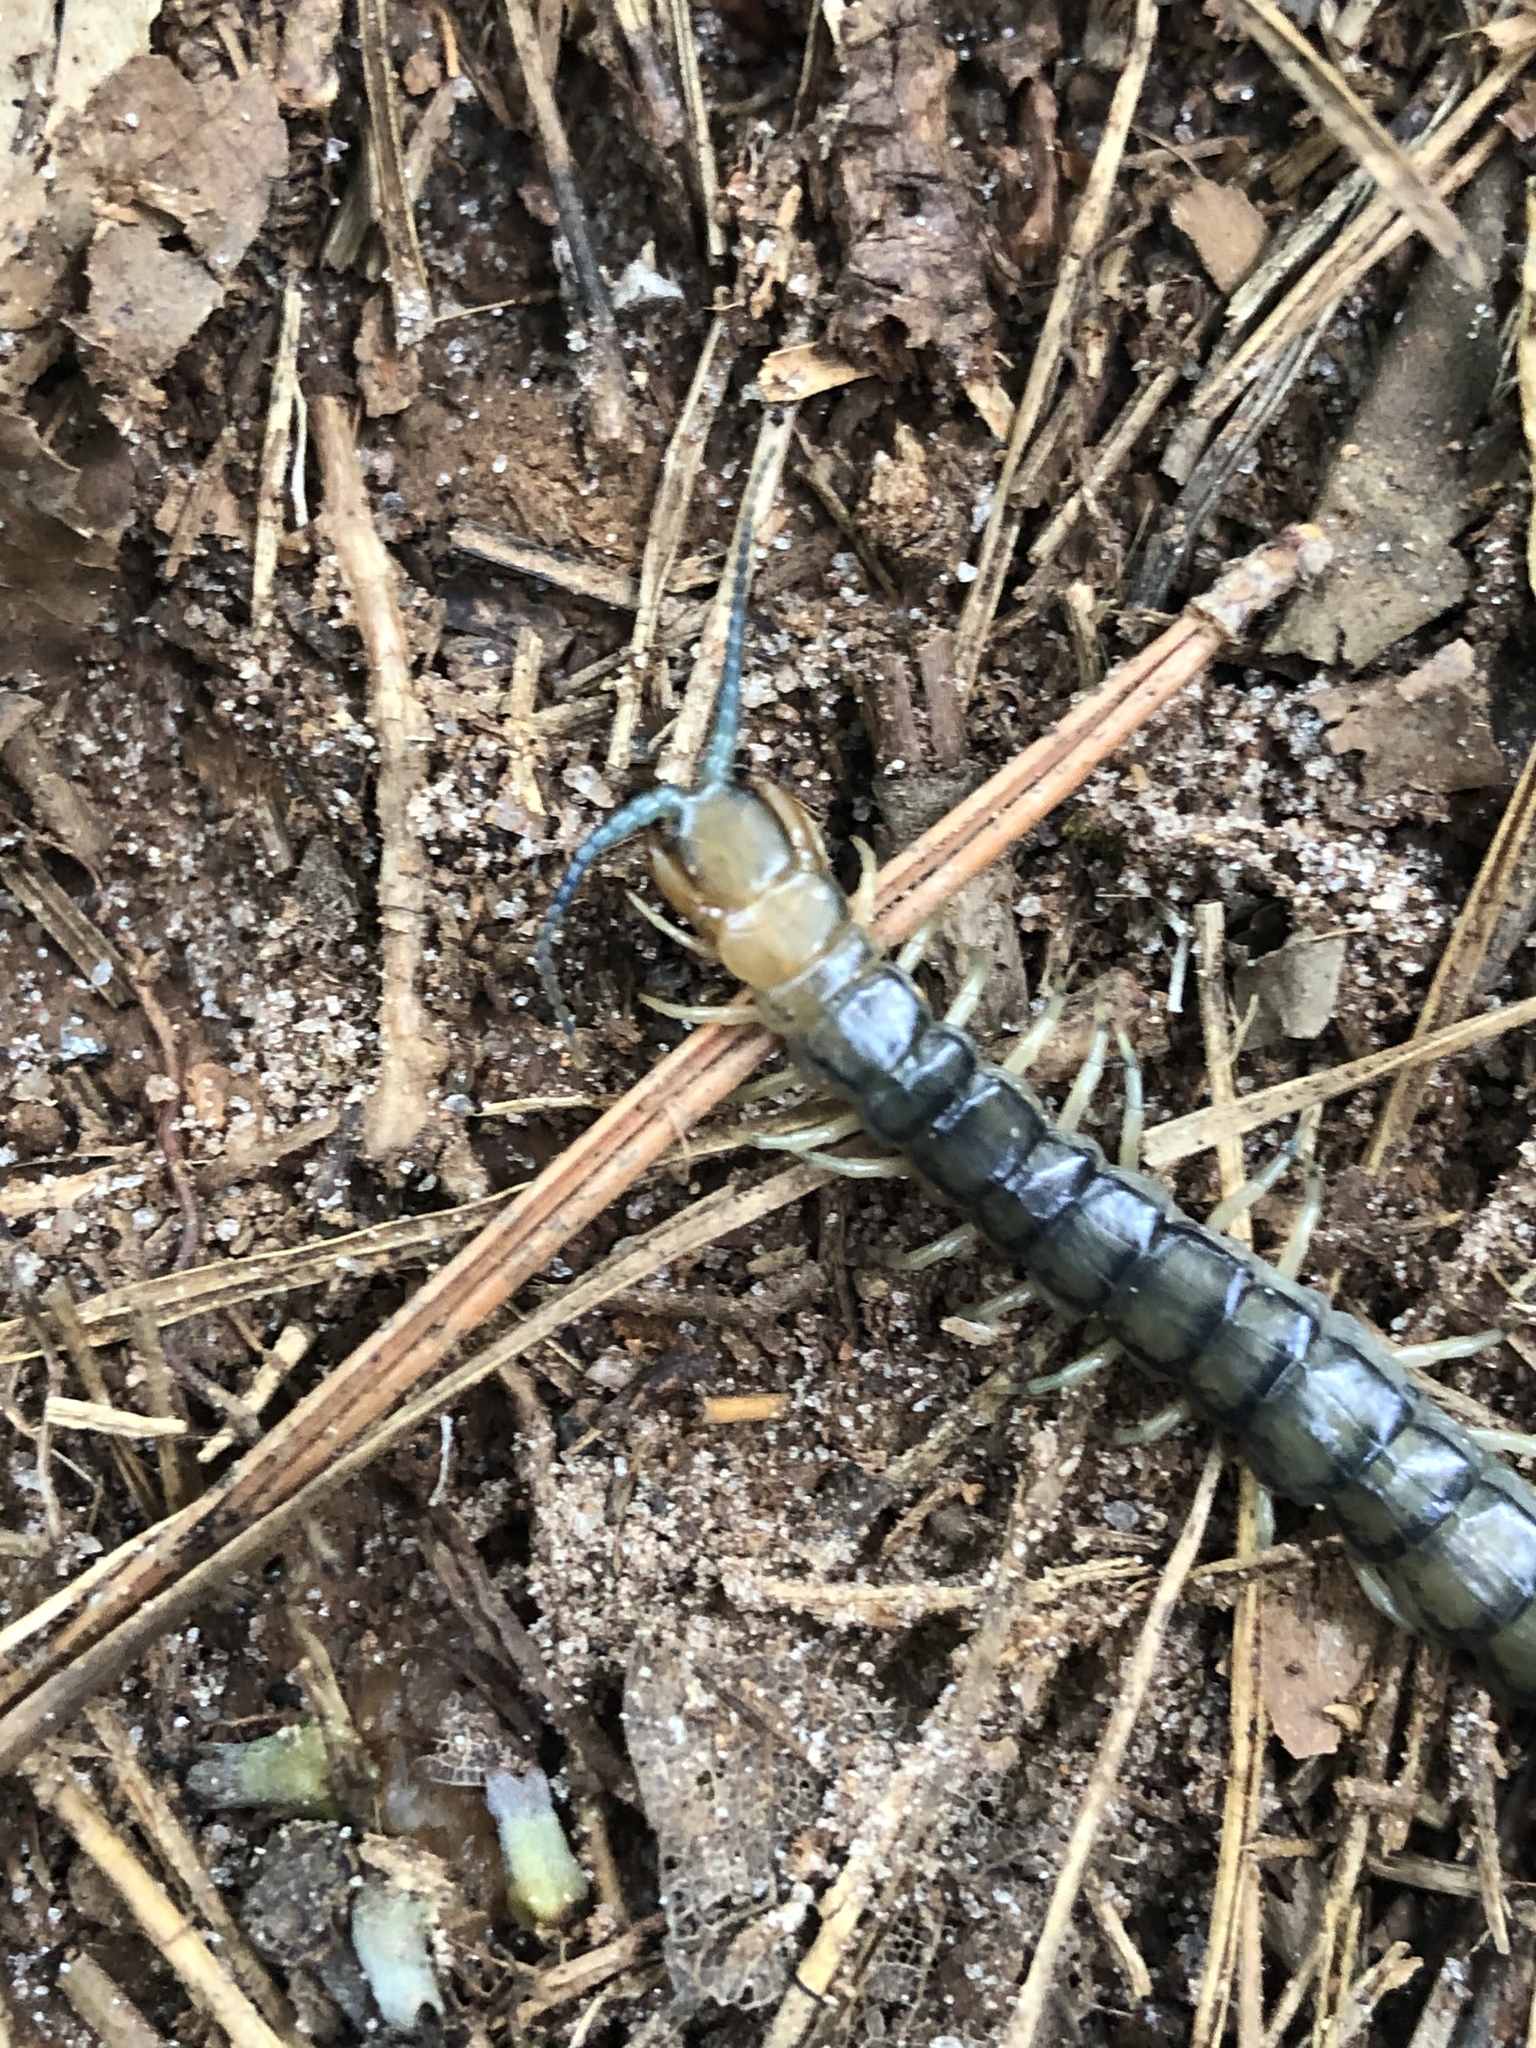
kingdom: Animalia
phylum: Arthropoda
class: Chilopoda
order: Scolopendromorpha
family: Scolopendridae
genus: Hemiscolopendra
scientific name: Hemiscolopendra marginata
